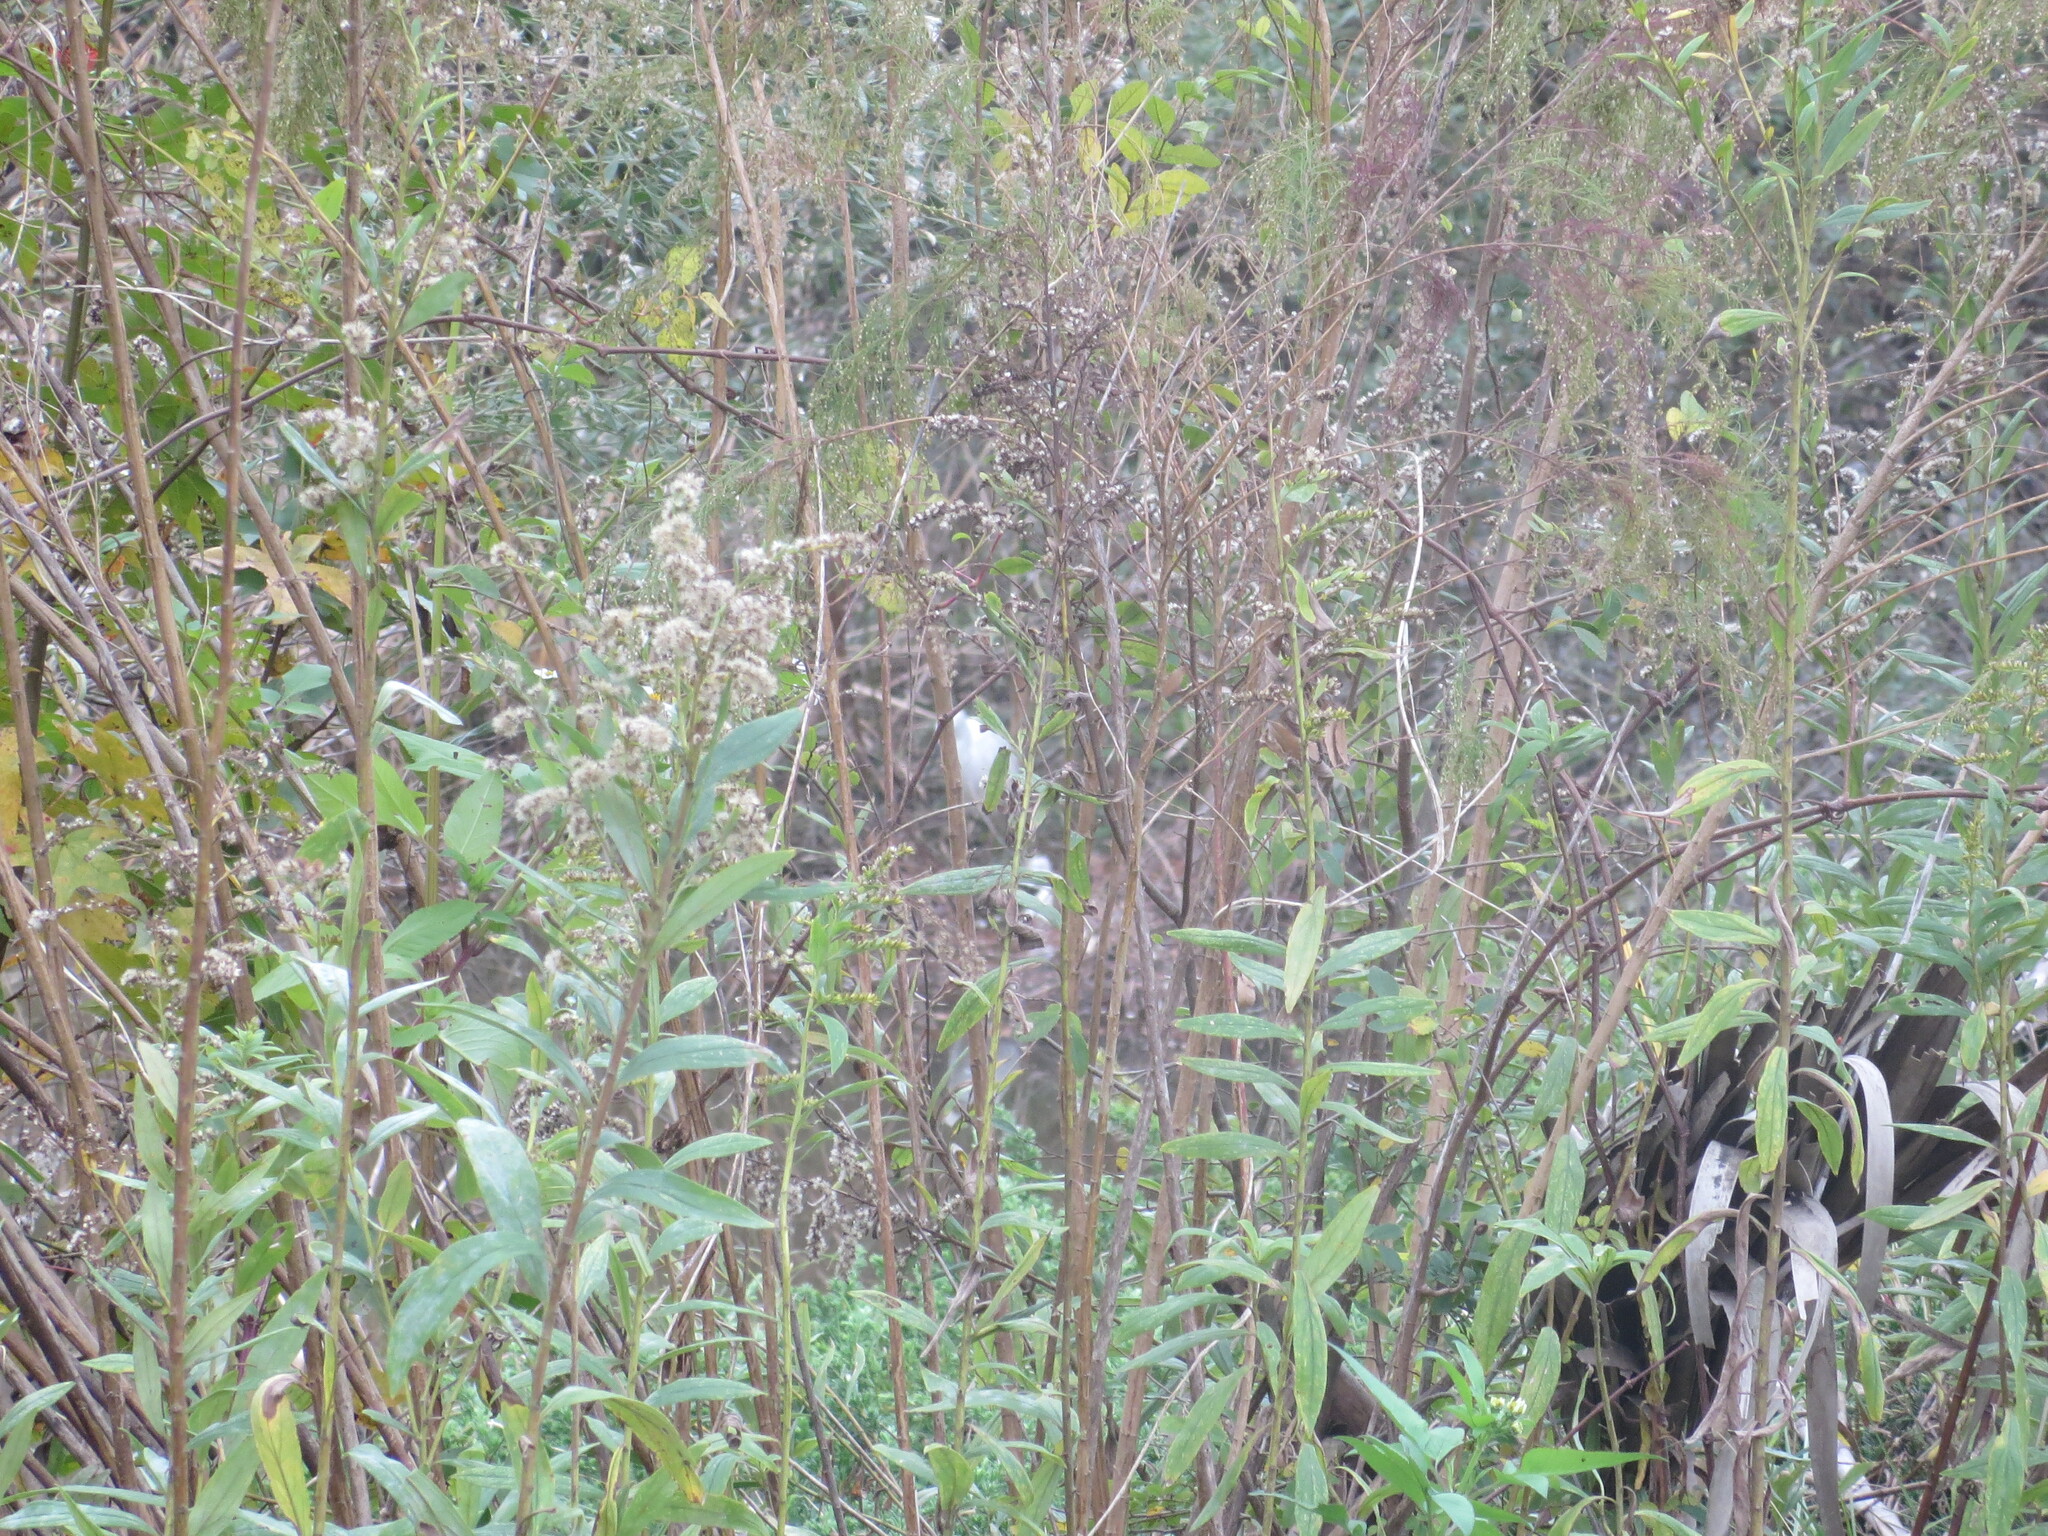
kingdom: Animalia
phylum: Chordata
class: Aves
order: Pelecaniformes
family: Ardeidae
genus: Egretta
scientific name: Egretta thula
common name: Snowy egret
